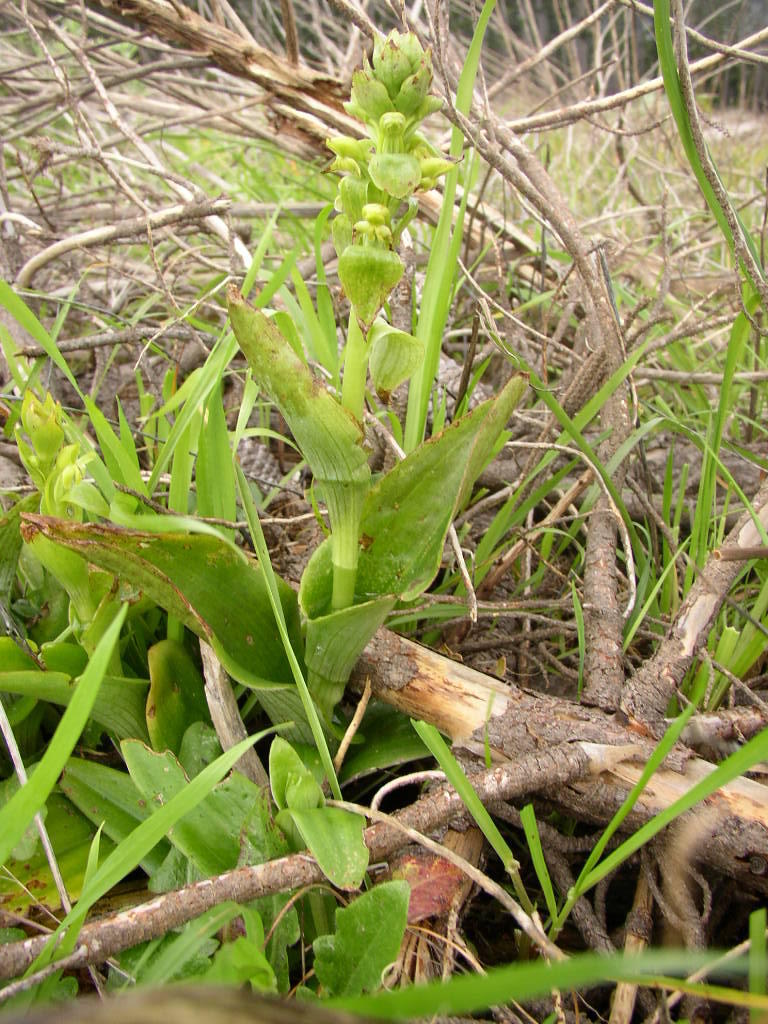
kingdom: Plantae
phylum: Tracheophyta
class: Liliopsida
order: Asparagales
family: Orchidaceae
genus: Satyrium
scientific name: Satyrium odorum
